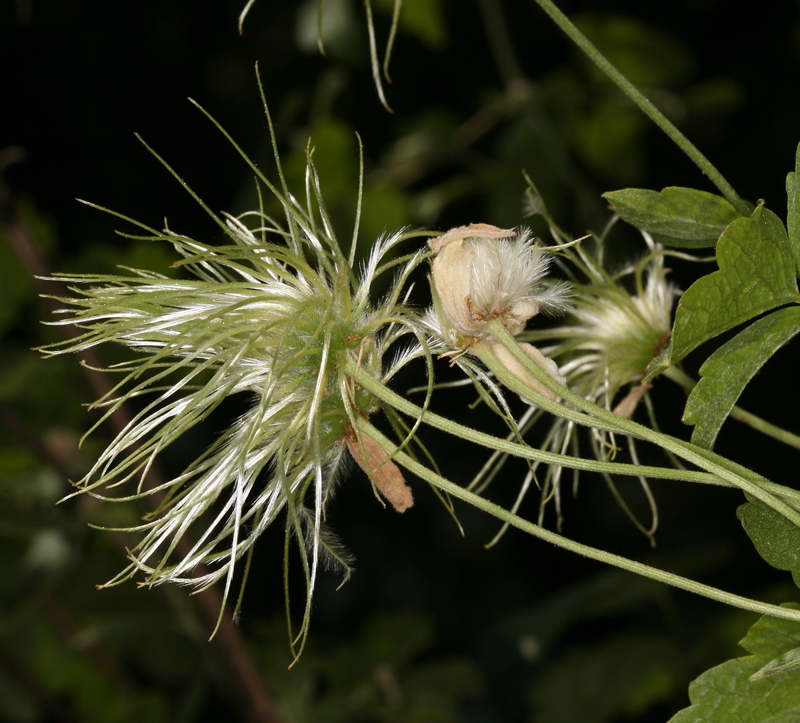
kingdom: Plantae
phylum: Tracheophyta
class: Magnoliopsida
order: Ranunculales
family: Ranunculaceae
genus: Clematis
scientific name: Clematis lasiantha
